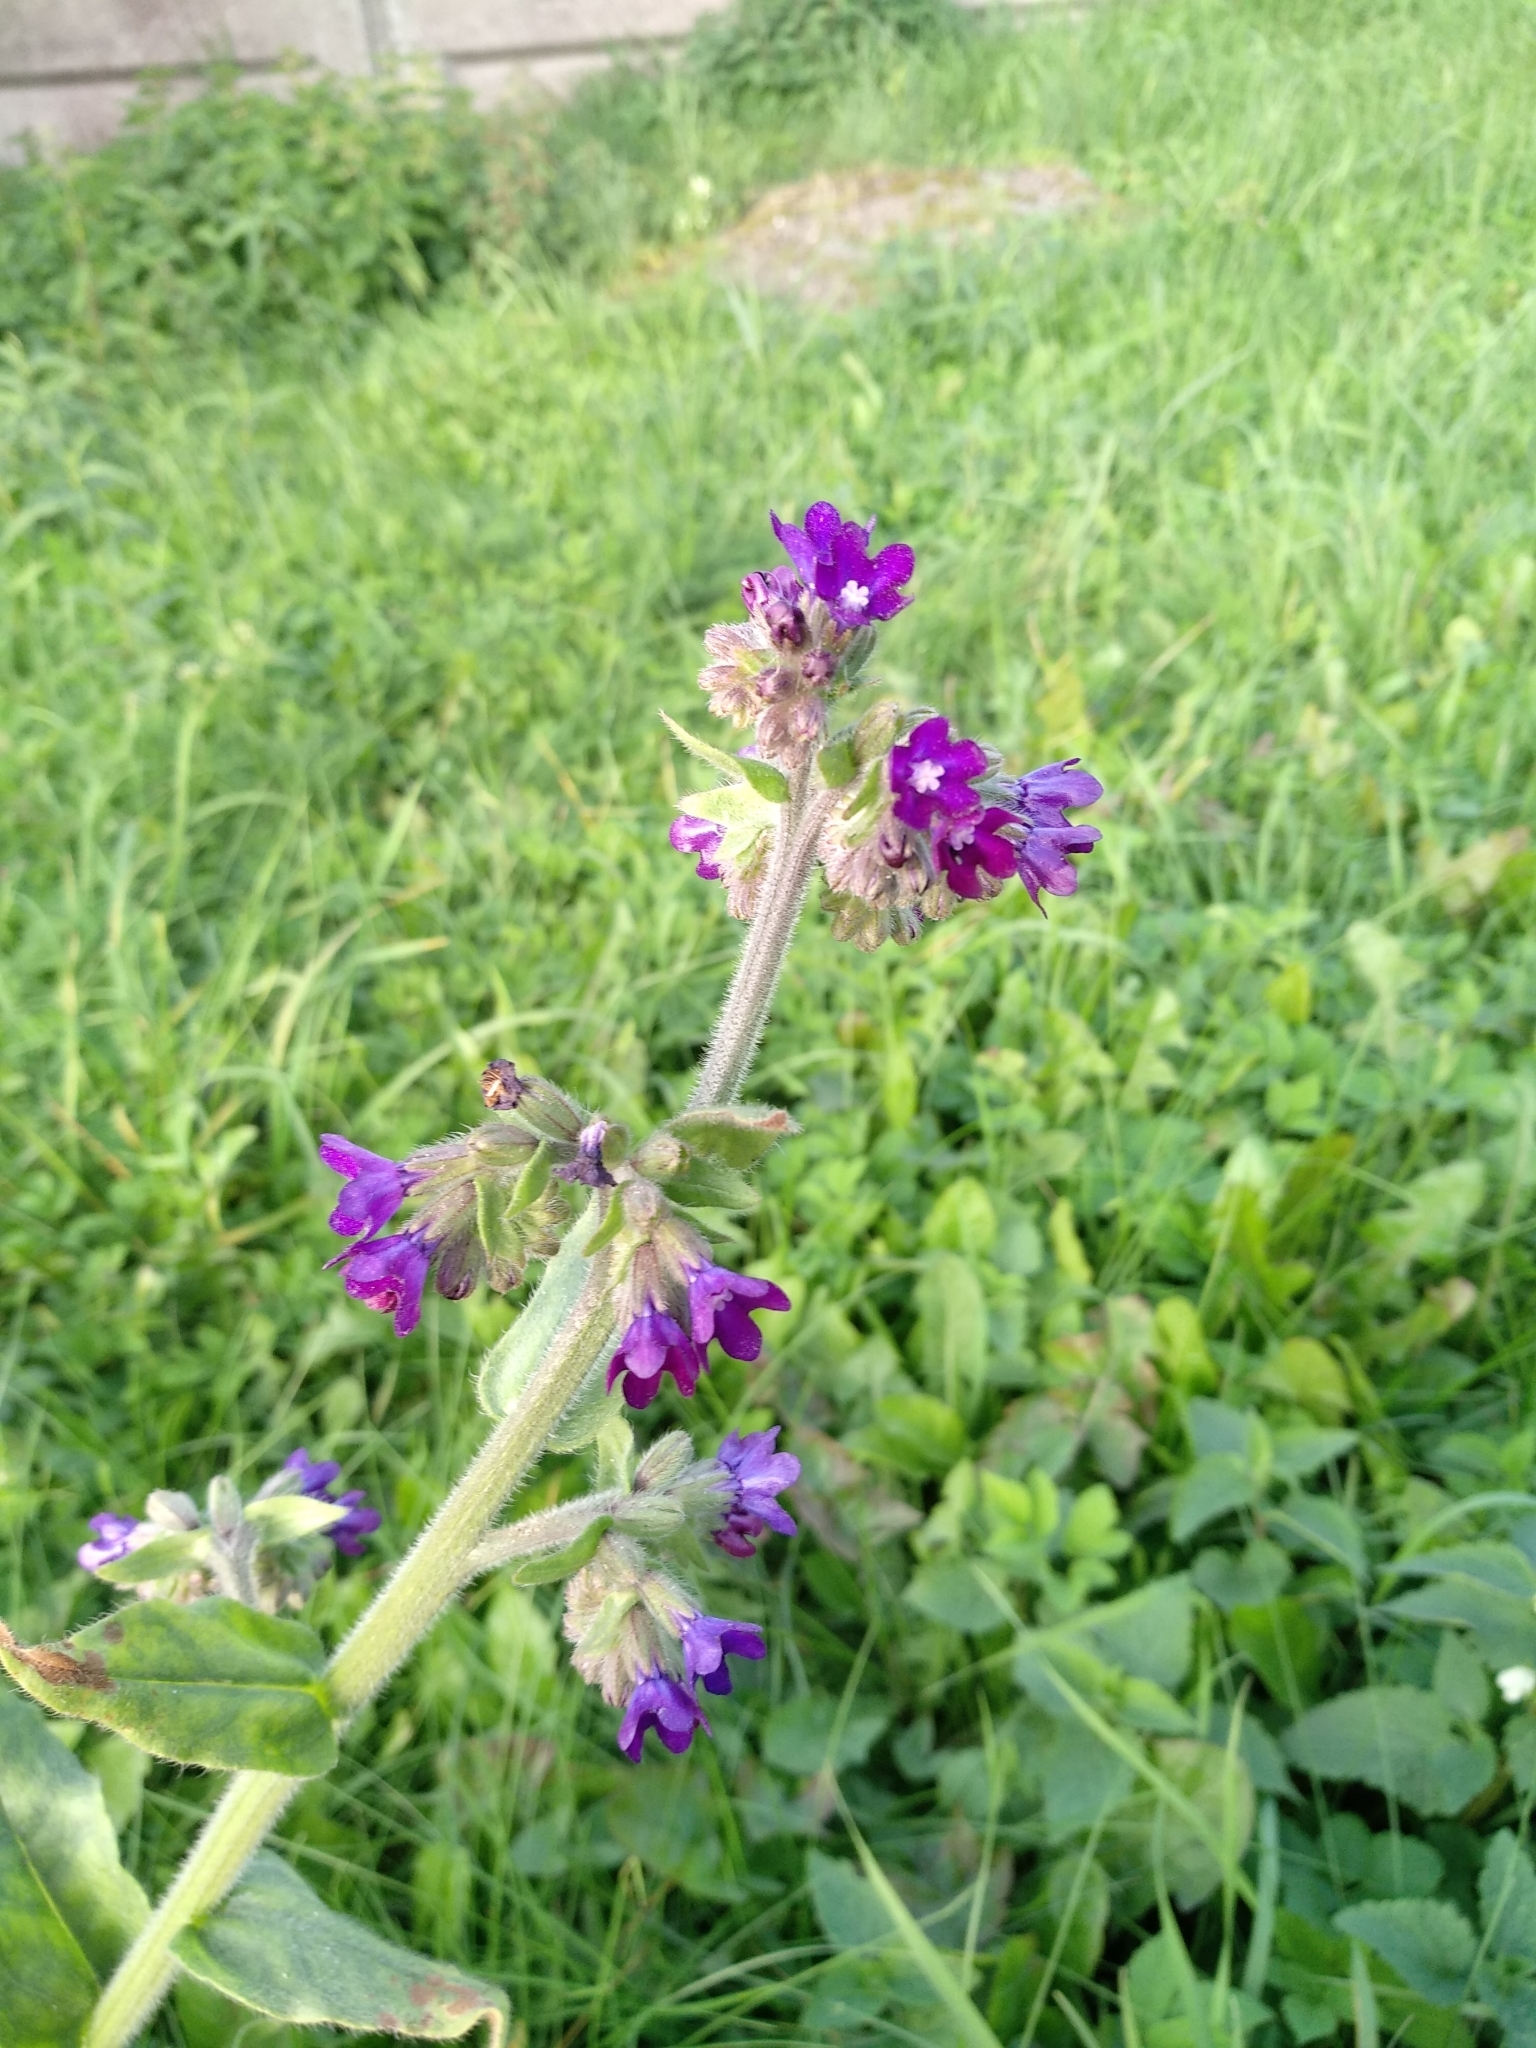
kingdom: Plantae
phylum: Tracheophyta
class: Magnoliopsida
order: Boraginales
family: Boraginaceae
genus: Anchusa
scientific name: Anchusa officinalis
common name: Alkanet
